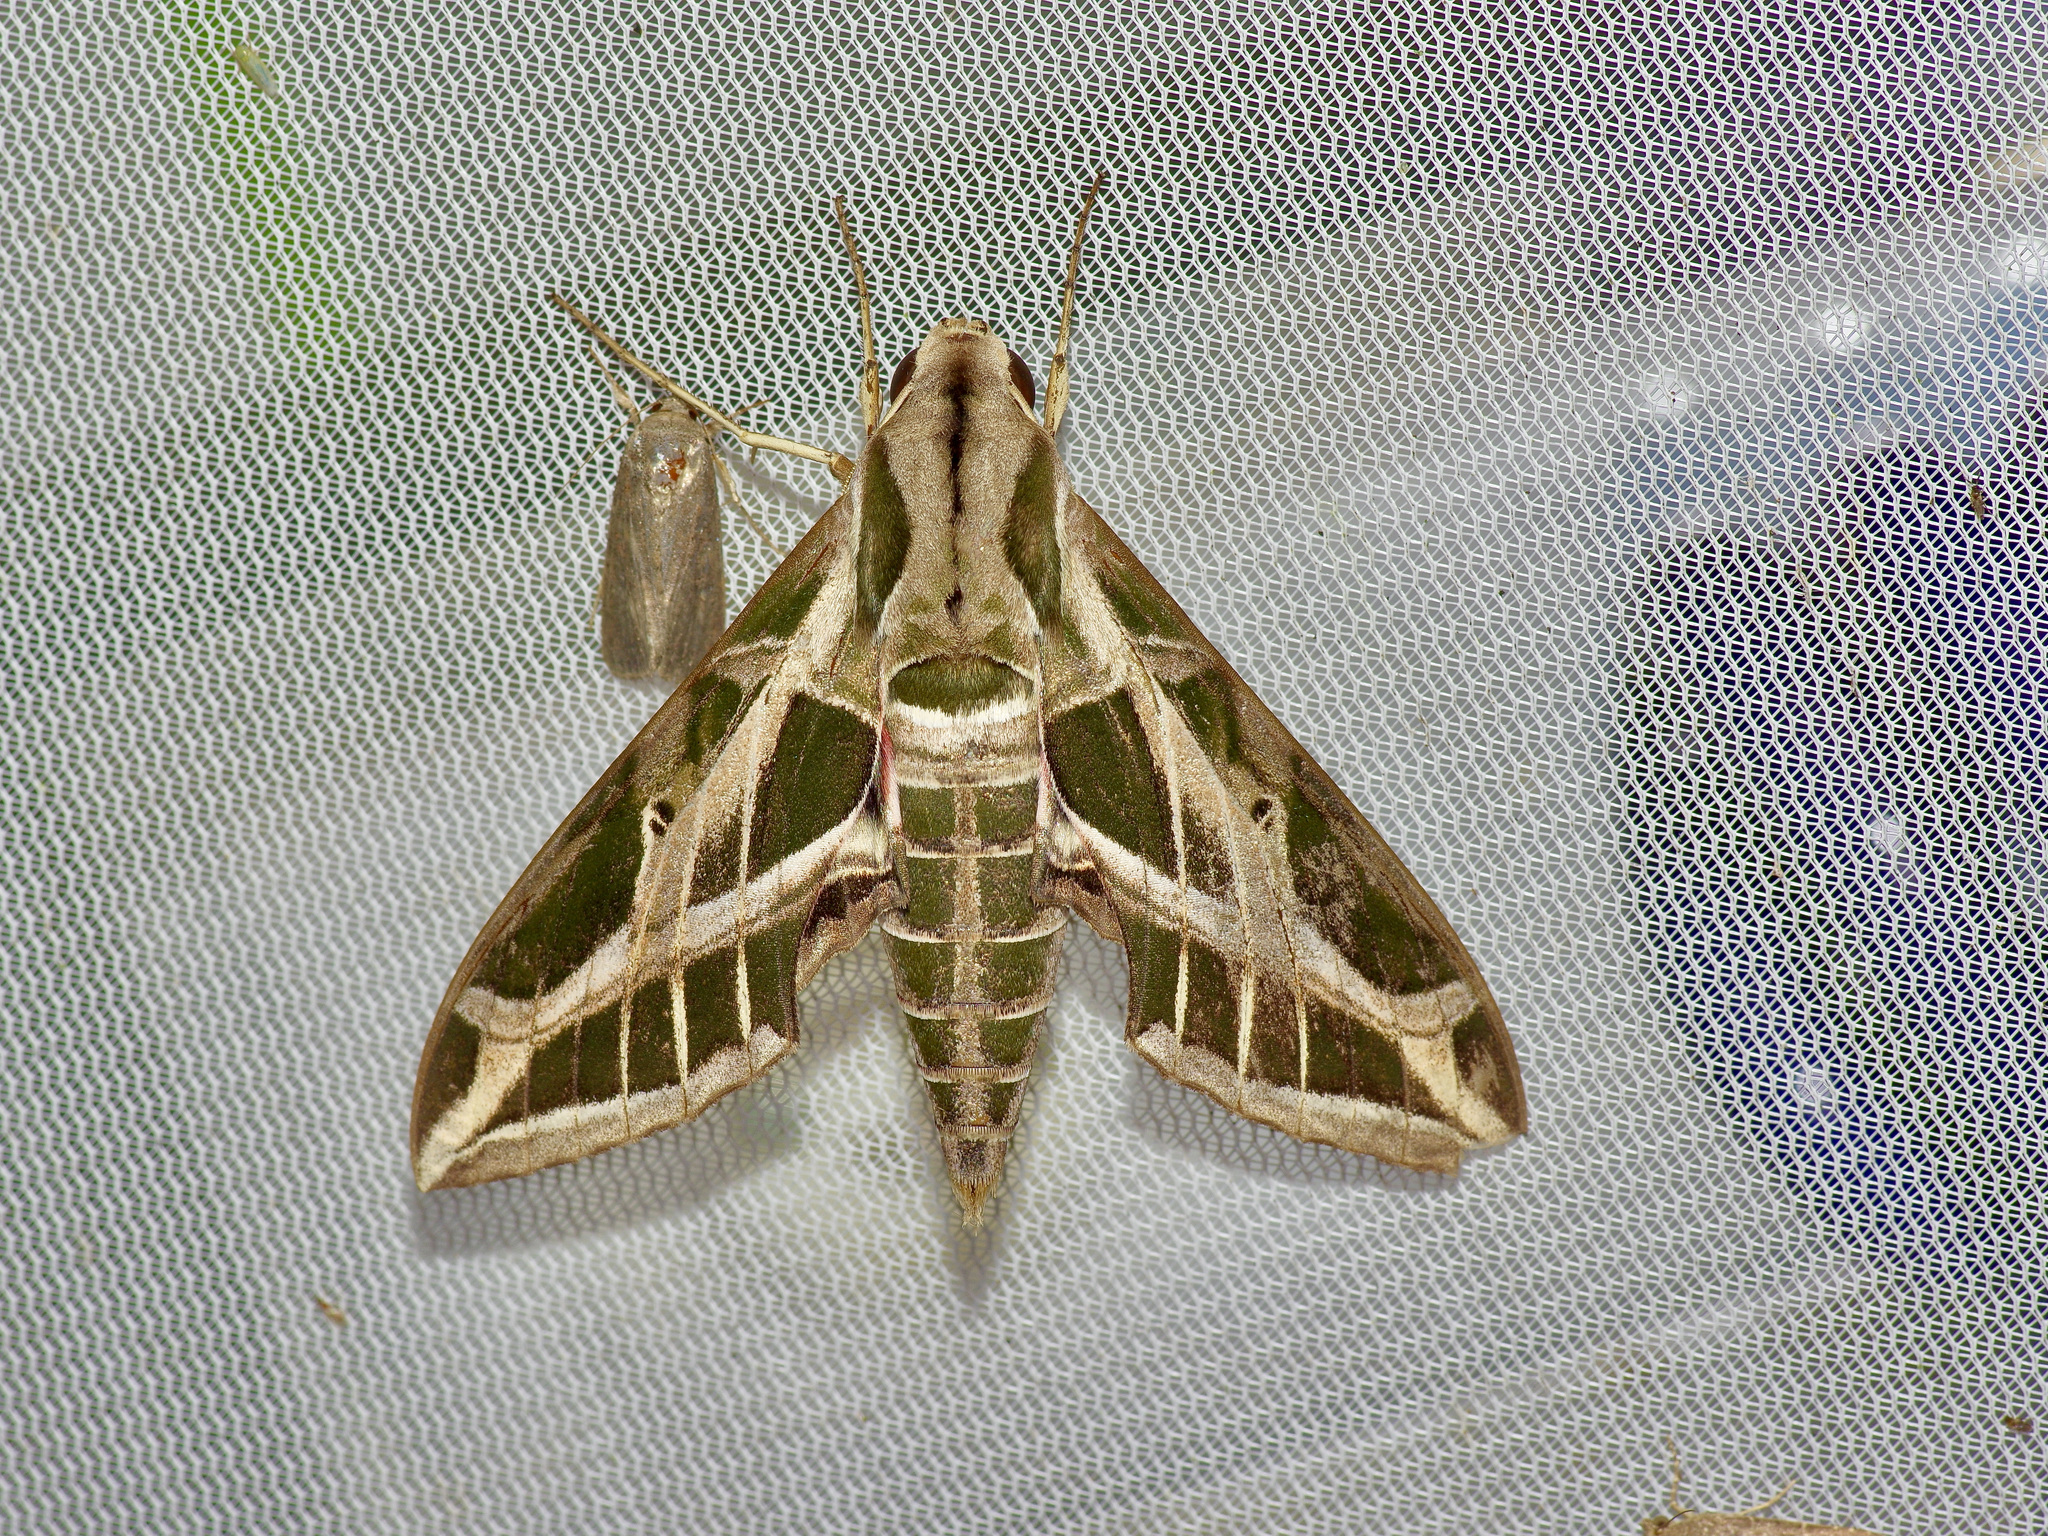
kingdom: Animalia
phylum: Arthropoda
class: Insecta
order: Lepidoptera
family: Sphingidae
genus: Eumorpha
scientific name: Eumorpha vitis
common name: Vine sphinx
